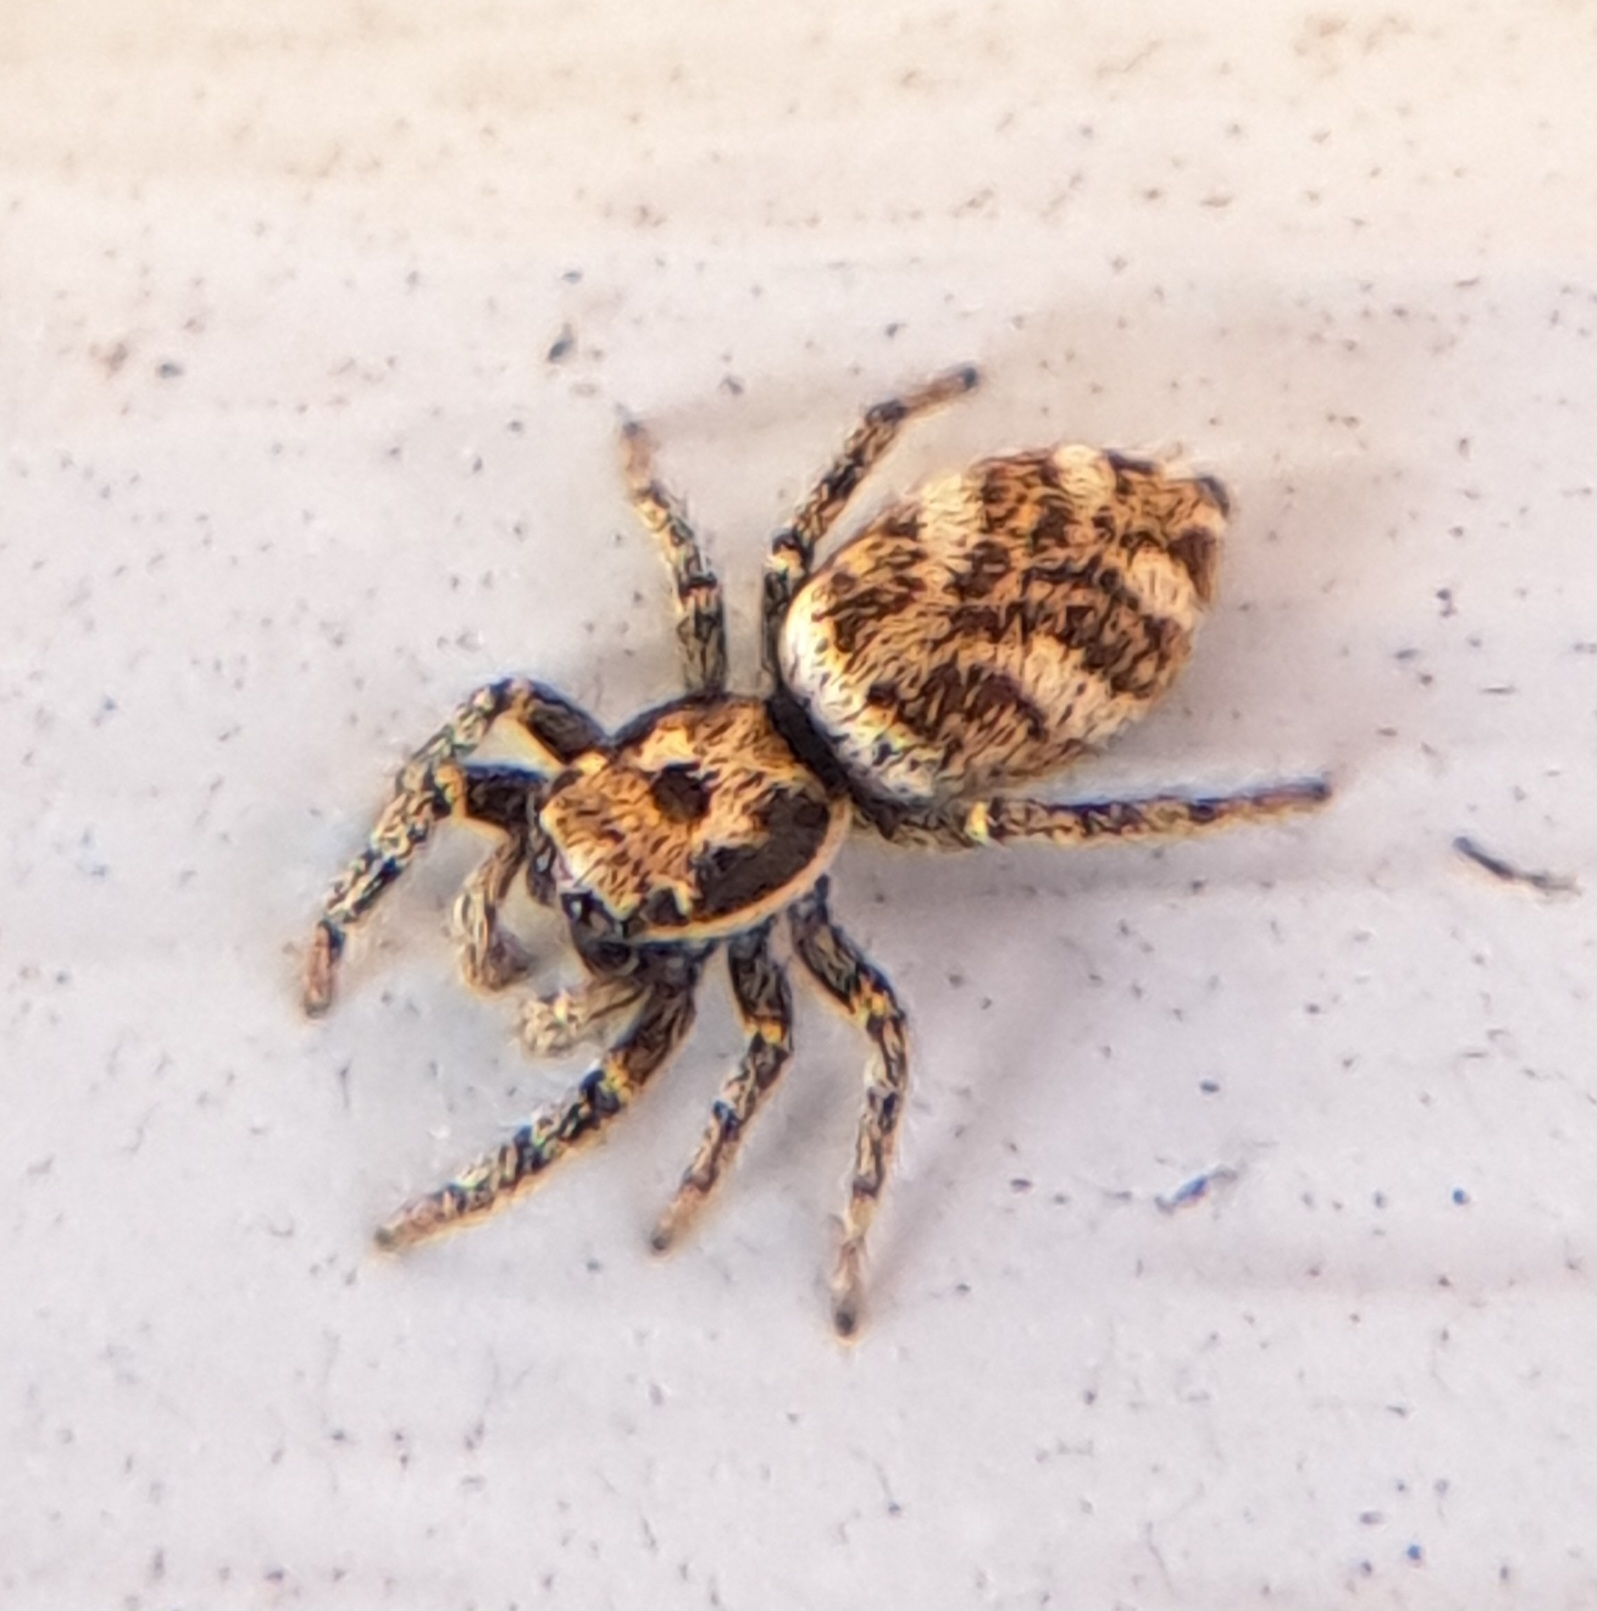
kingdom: Animalia
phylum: Arthropoda
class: Arachnida
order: Araneae
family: Salticidae
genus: Salticus
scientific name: Salticus scenicus
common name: Zebra jumper
